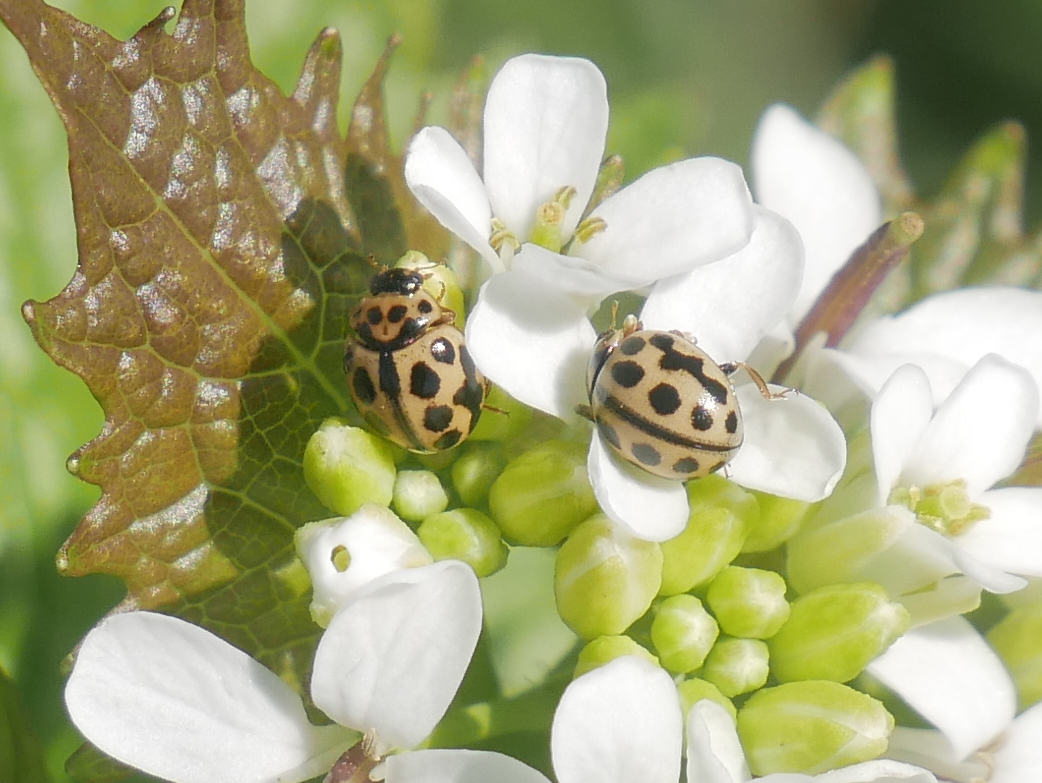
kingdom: Animalia
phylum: Arthropoda
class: Insecta
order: Coleoptera
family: Coccinellidae
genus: Tytthaspis
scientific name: Tytthaspis sedecimpunctata
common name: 16-spot ladybird
